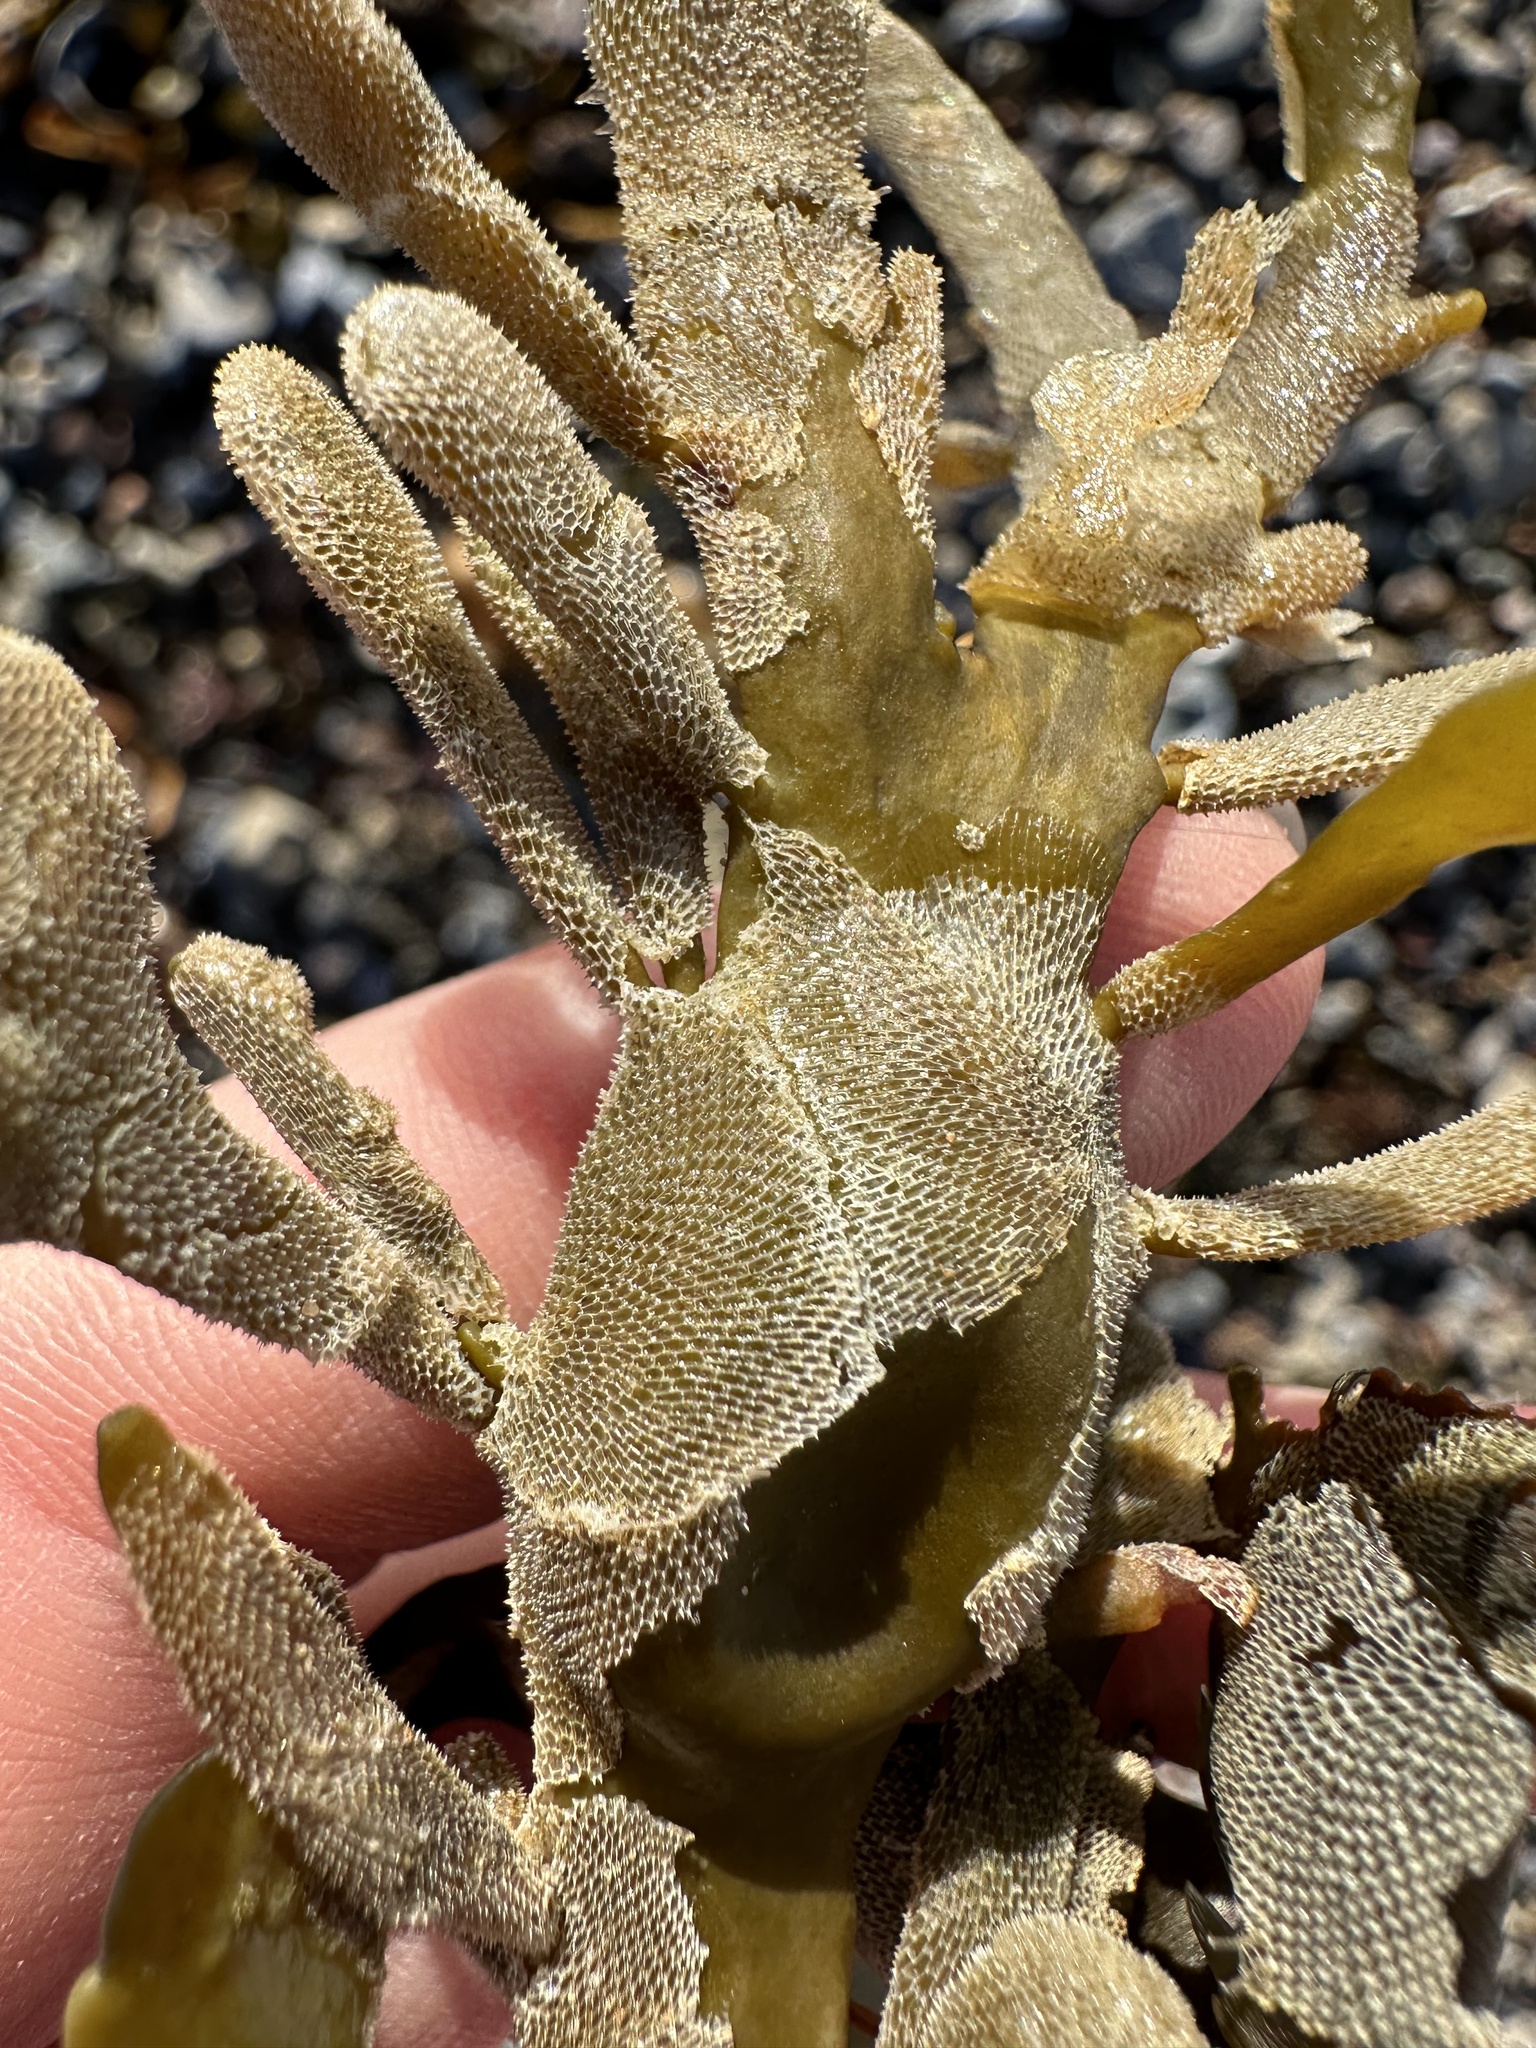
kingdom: Animalia
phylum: Bryozoa
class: Gymnolaemata
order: Cheilostomatida
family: Membraniporidae
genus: Membranipora
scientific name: Membranipora membranacea
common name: Sea mat
